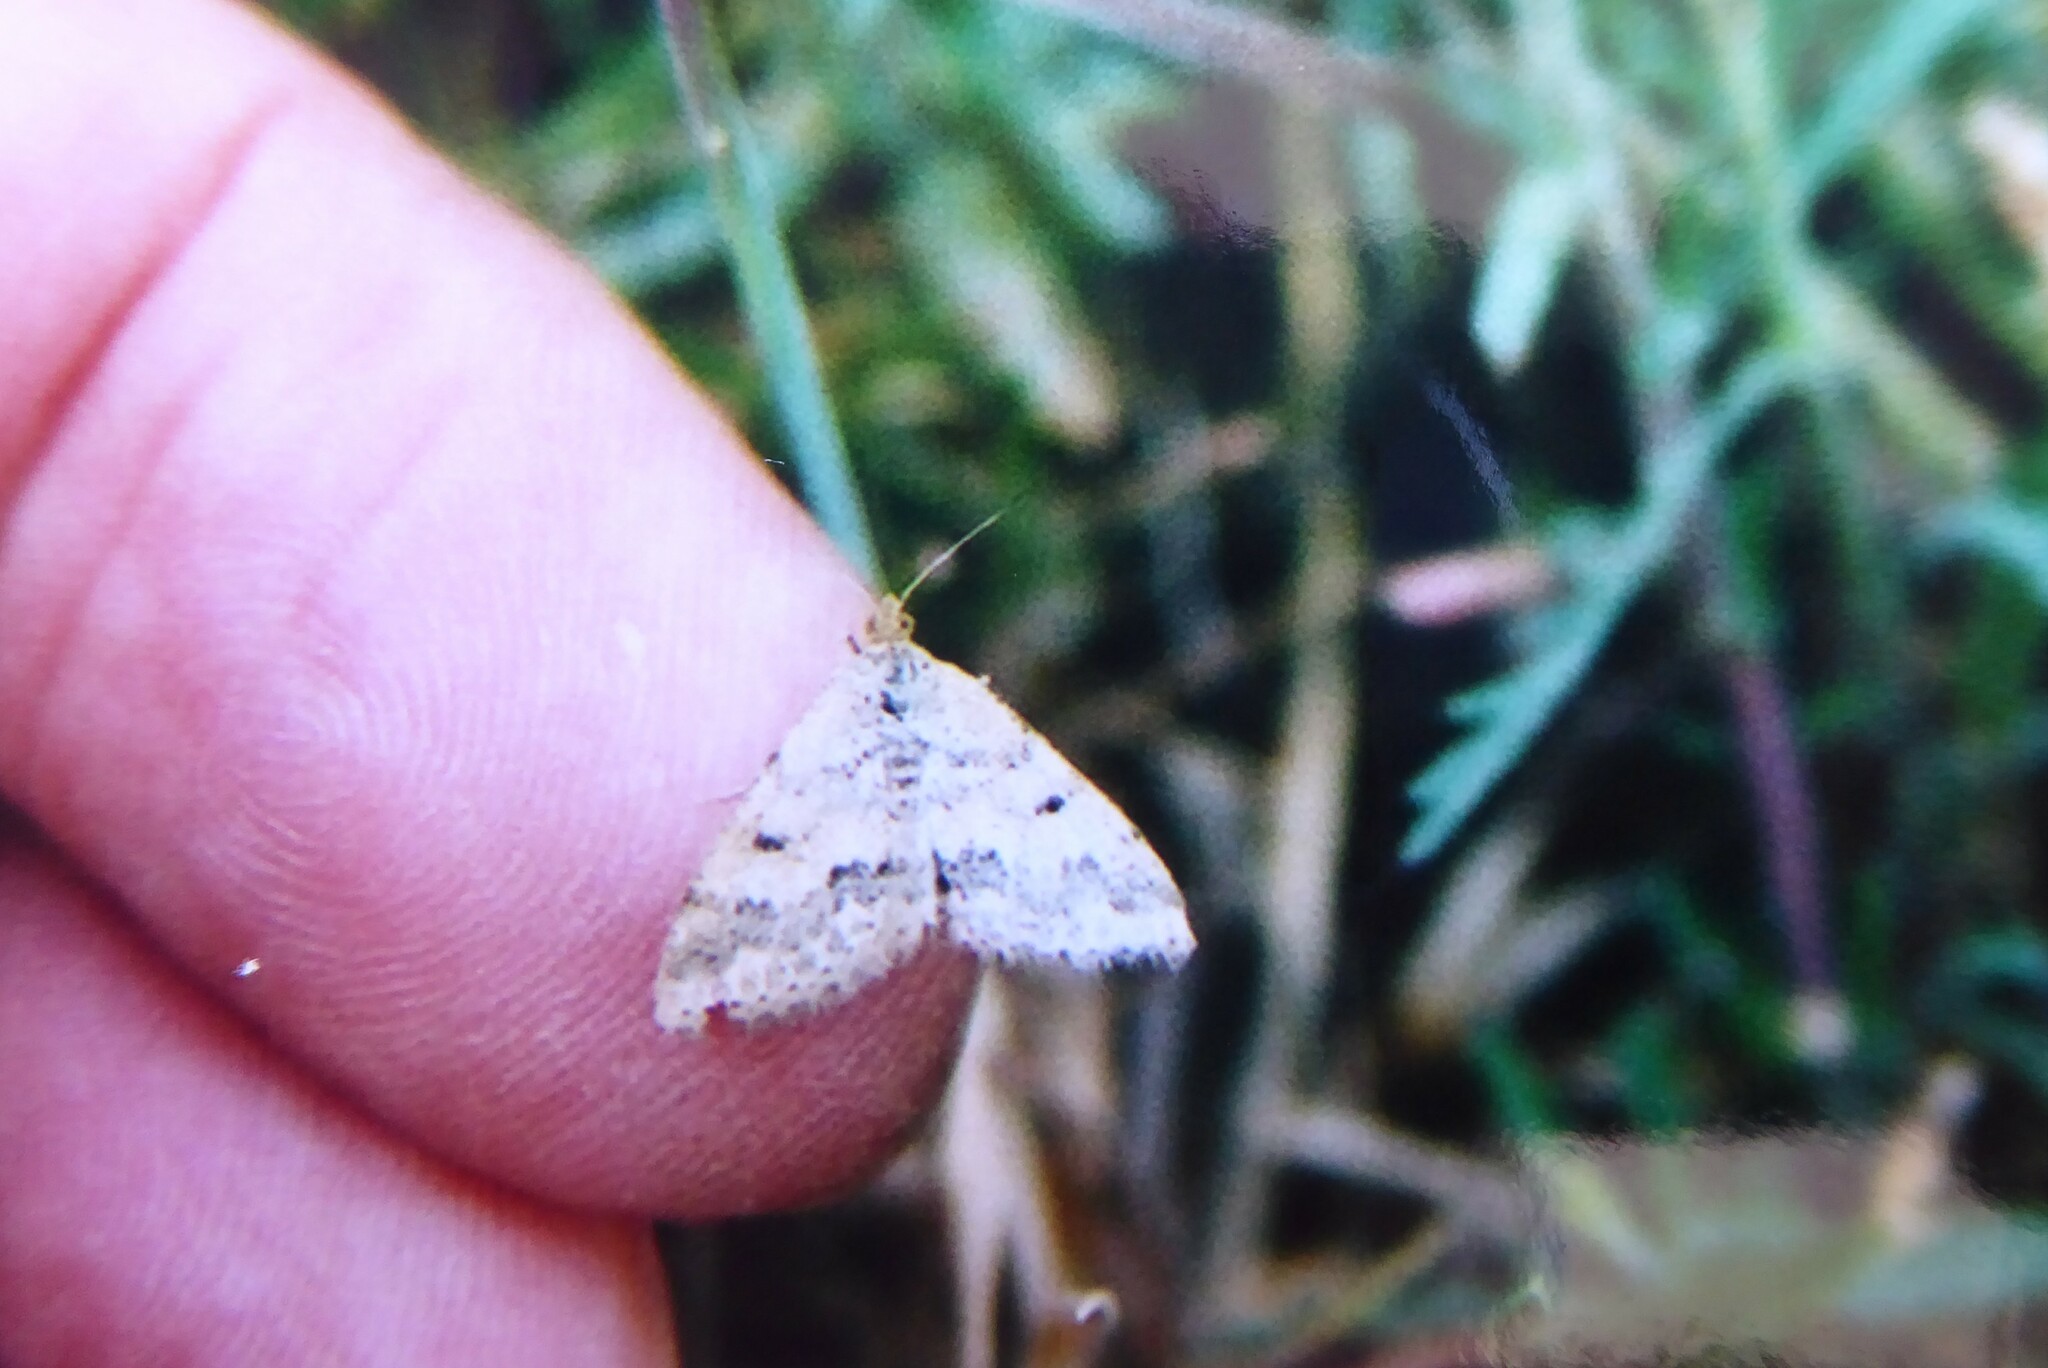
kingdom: Animalia
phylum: Arthropoda
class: Insecta
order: Lepidoptera
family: Geometridae
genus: Scopula
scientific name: Scopula rubraria
